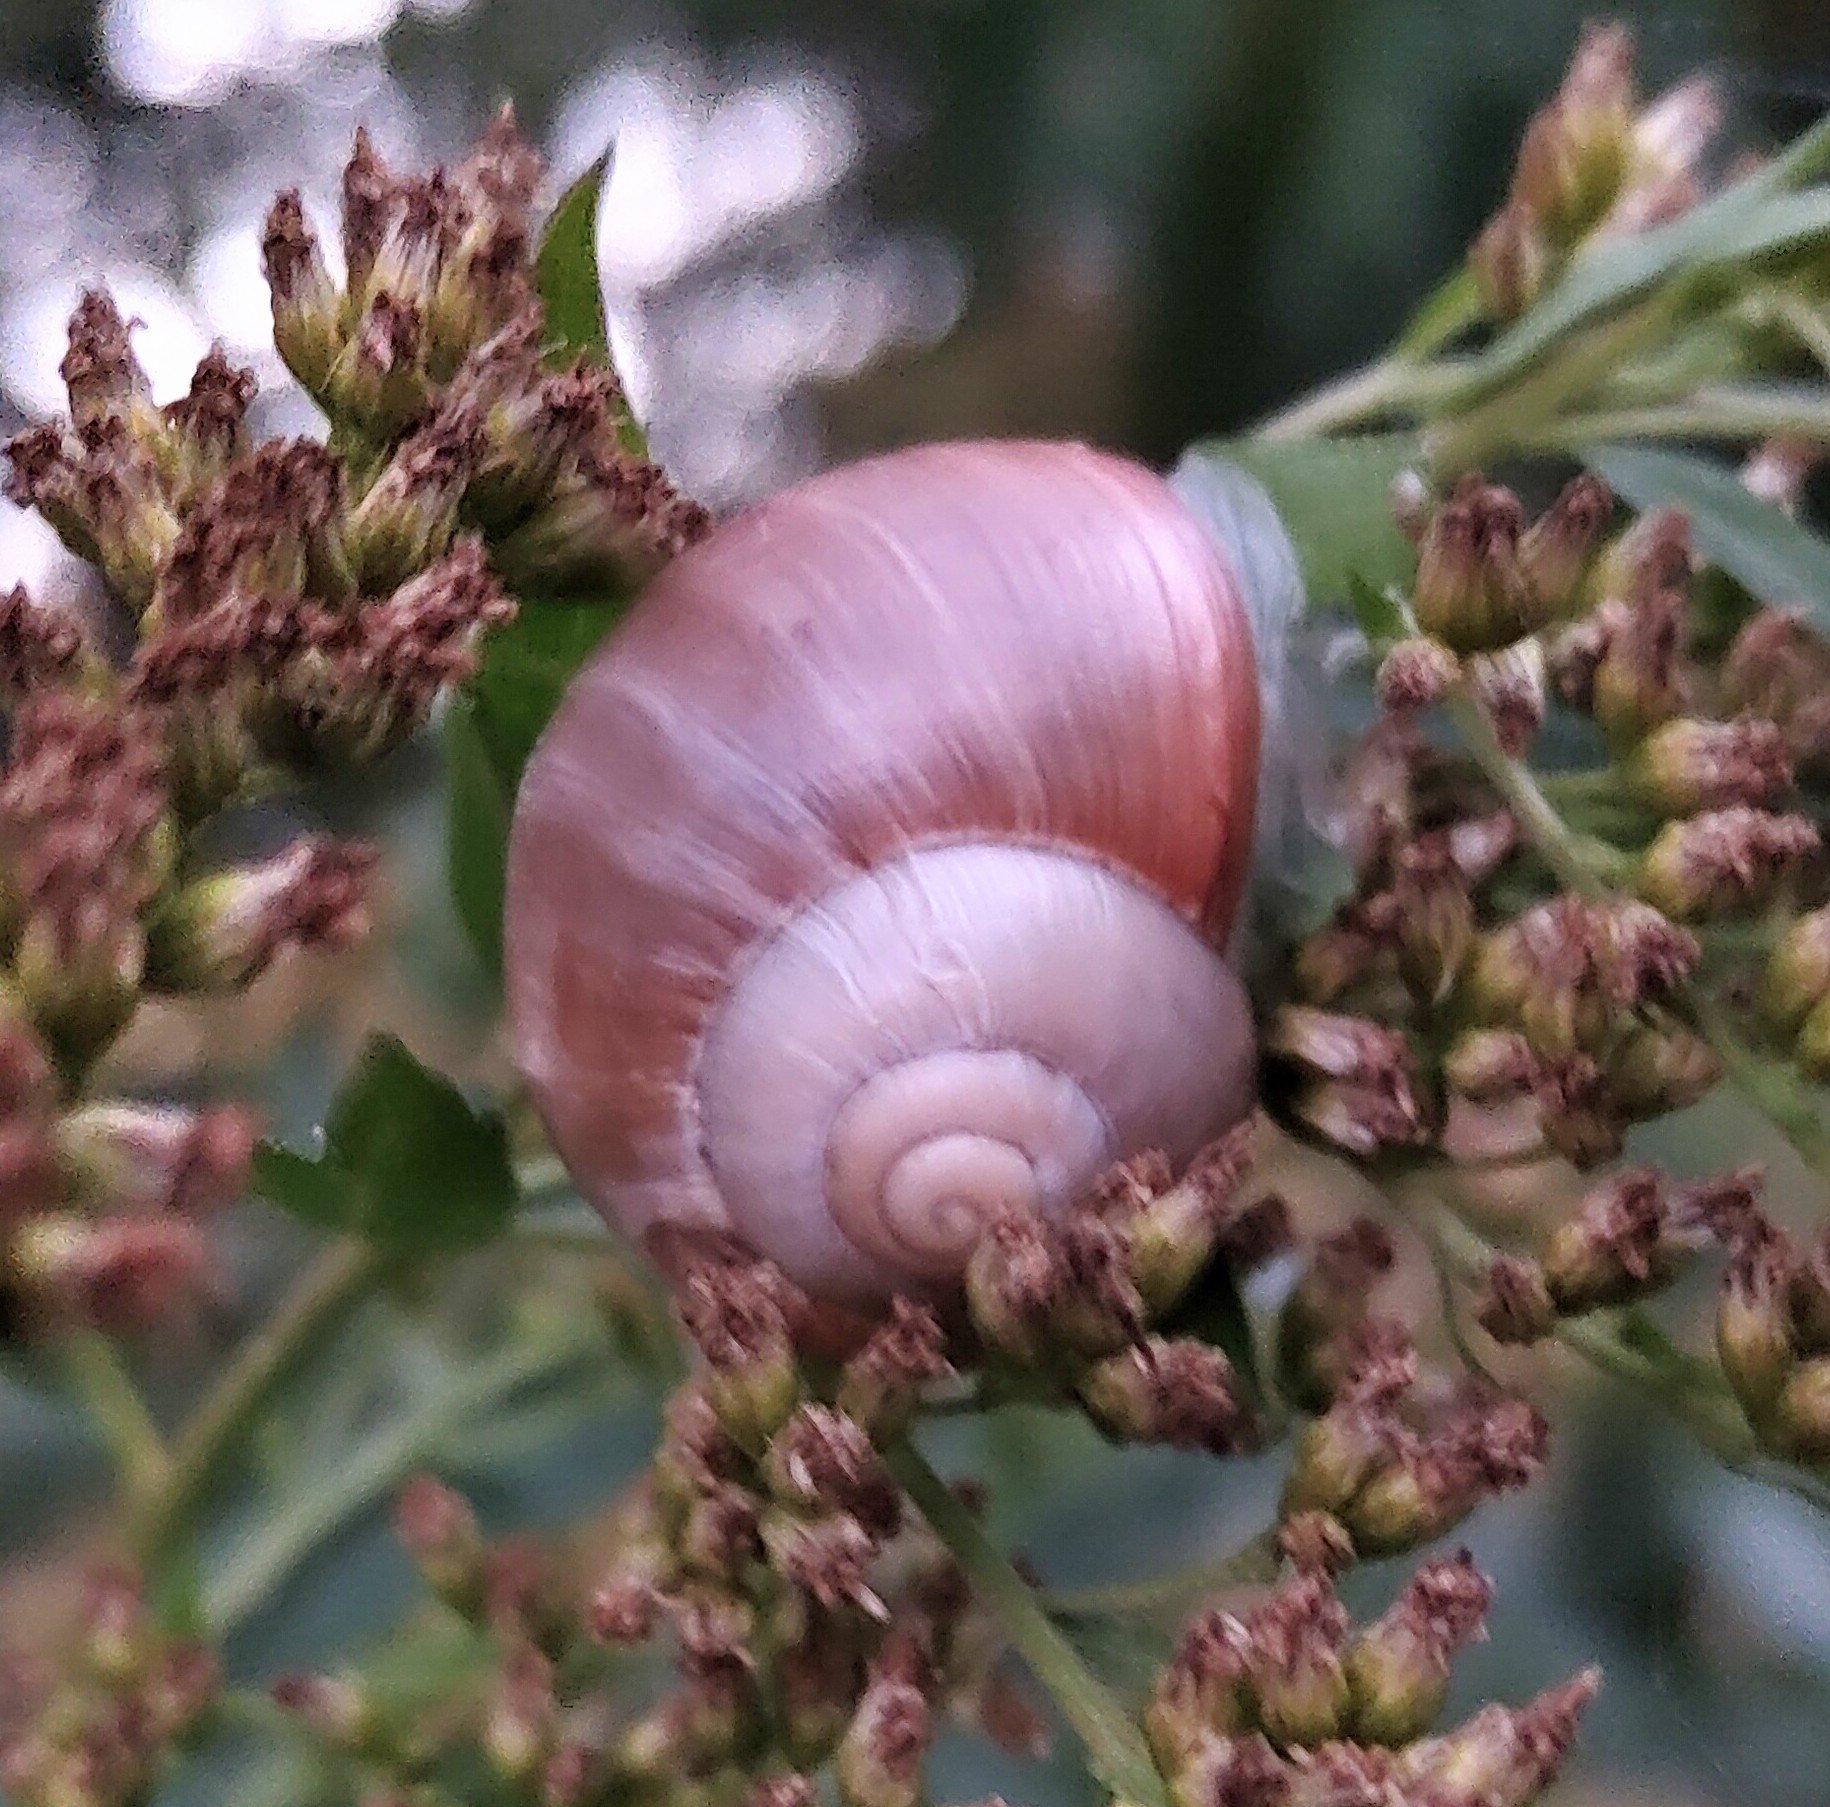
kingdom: Animalia
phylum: Mollusca
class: Gastropoda
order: Stylommatophora
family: Helicidae
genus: Helix
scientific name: Helix lutescens
